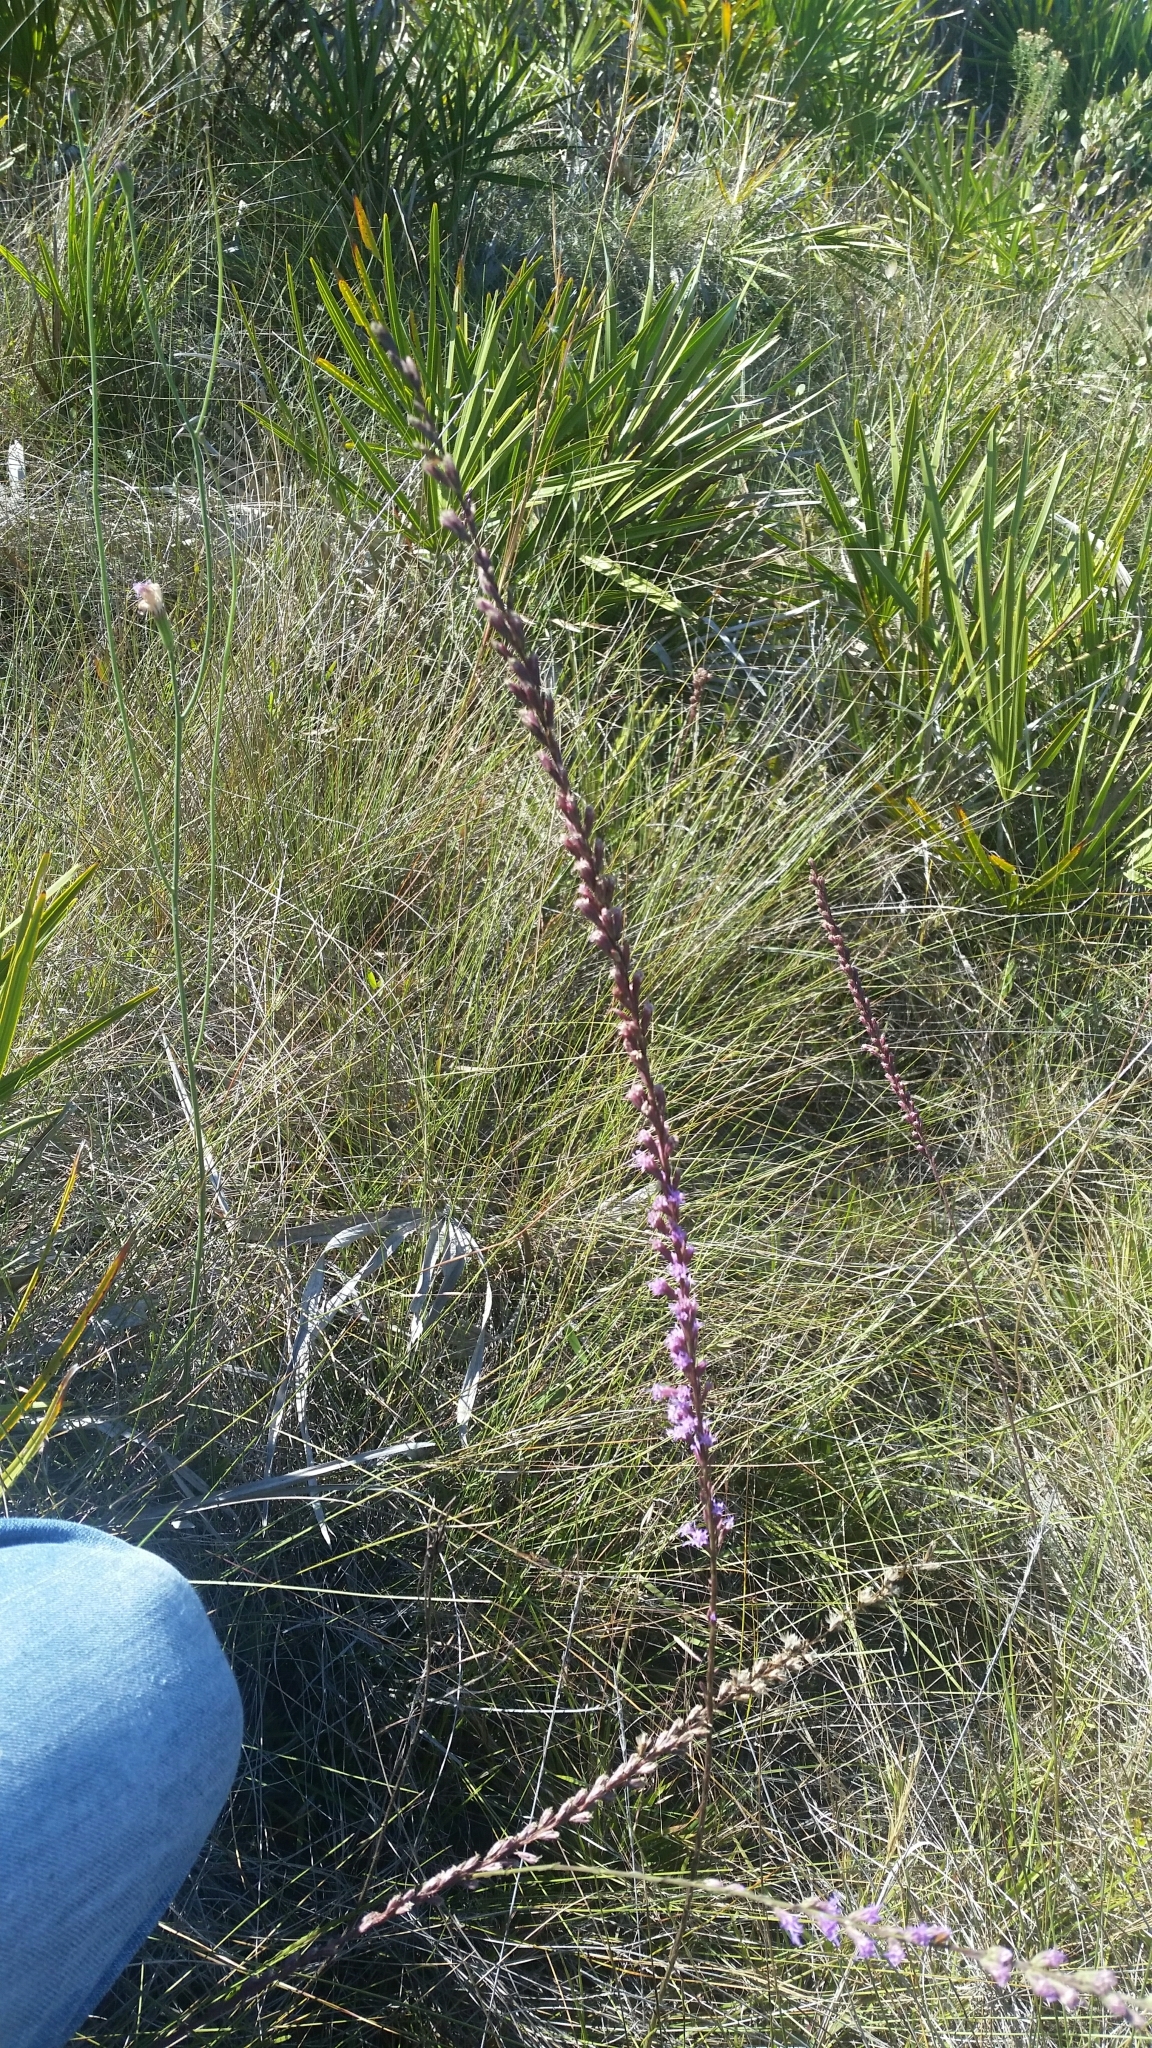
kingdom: Plantae
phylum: Tracheophyta
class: Magnoliopsida
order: Asterales
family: Asteraceae
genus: Liatris
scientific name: Liatris quadriflora
